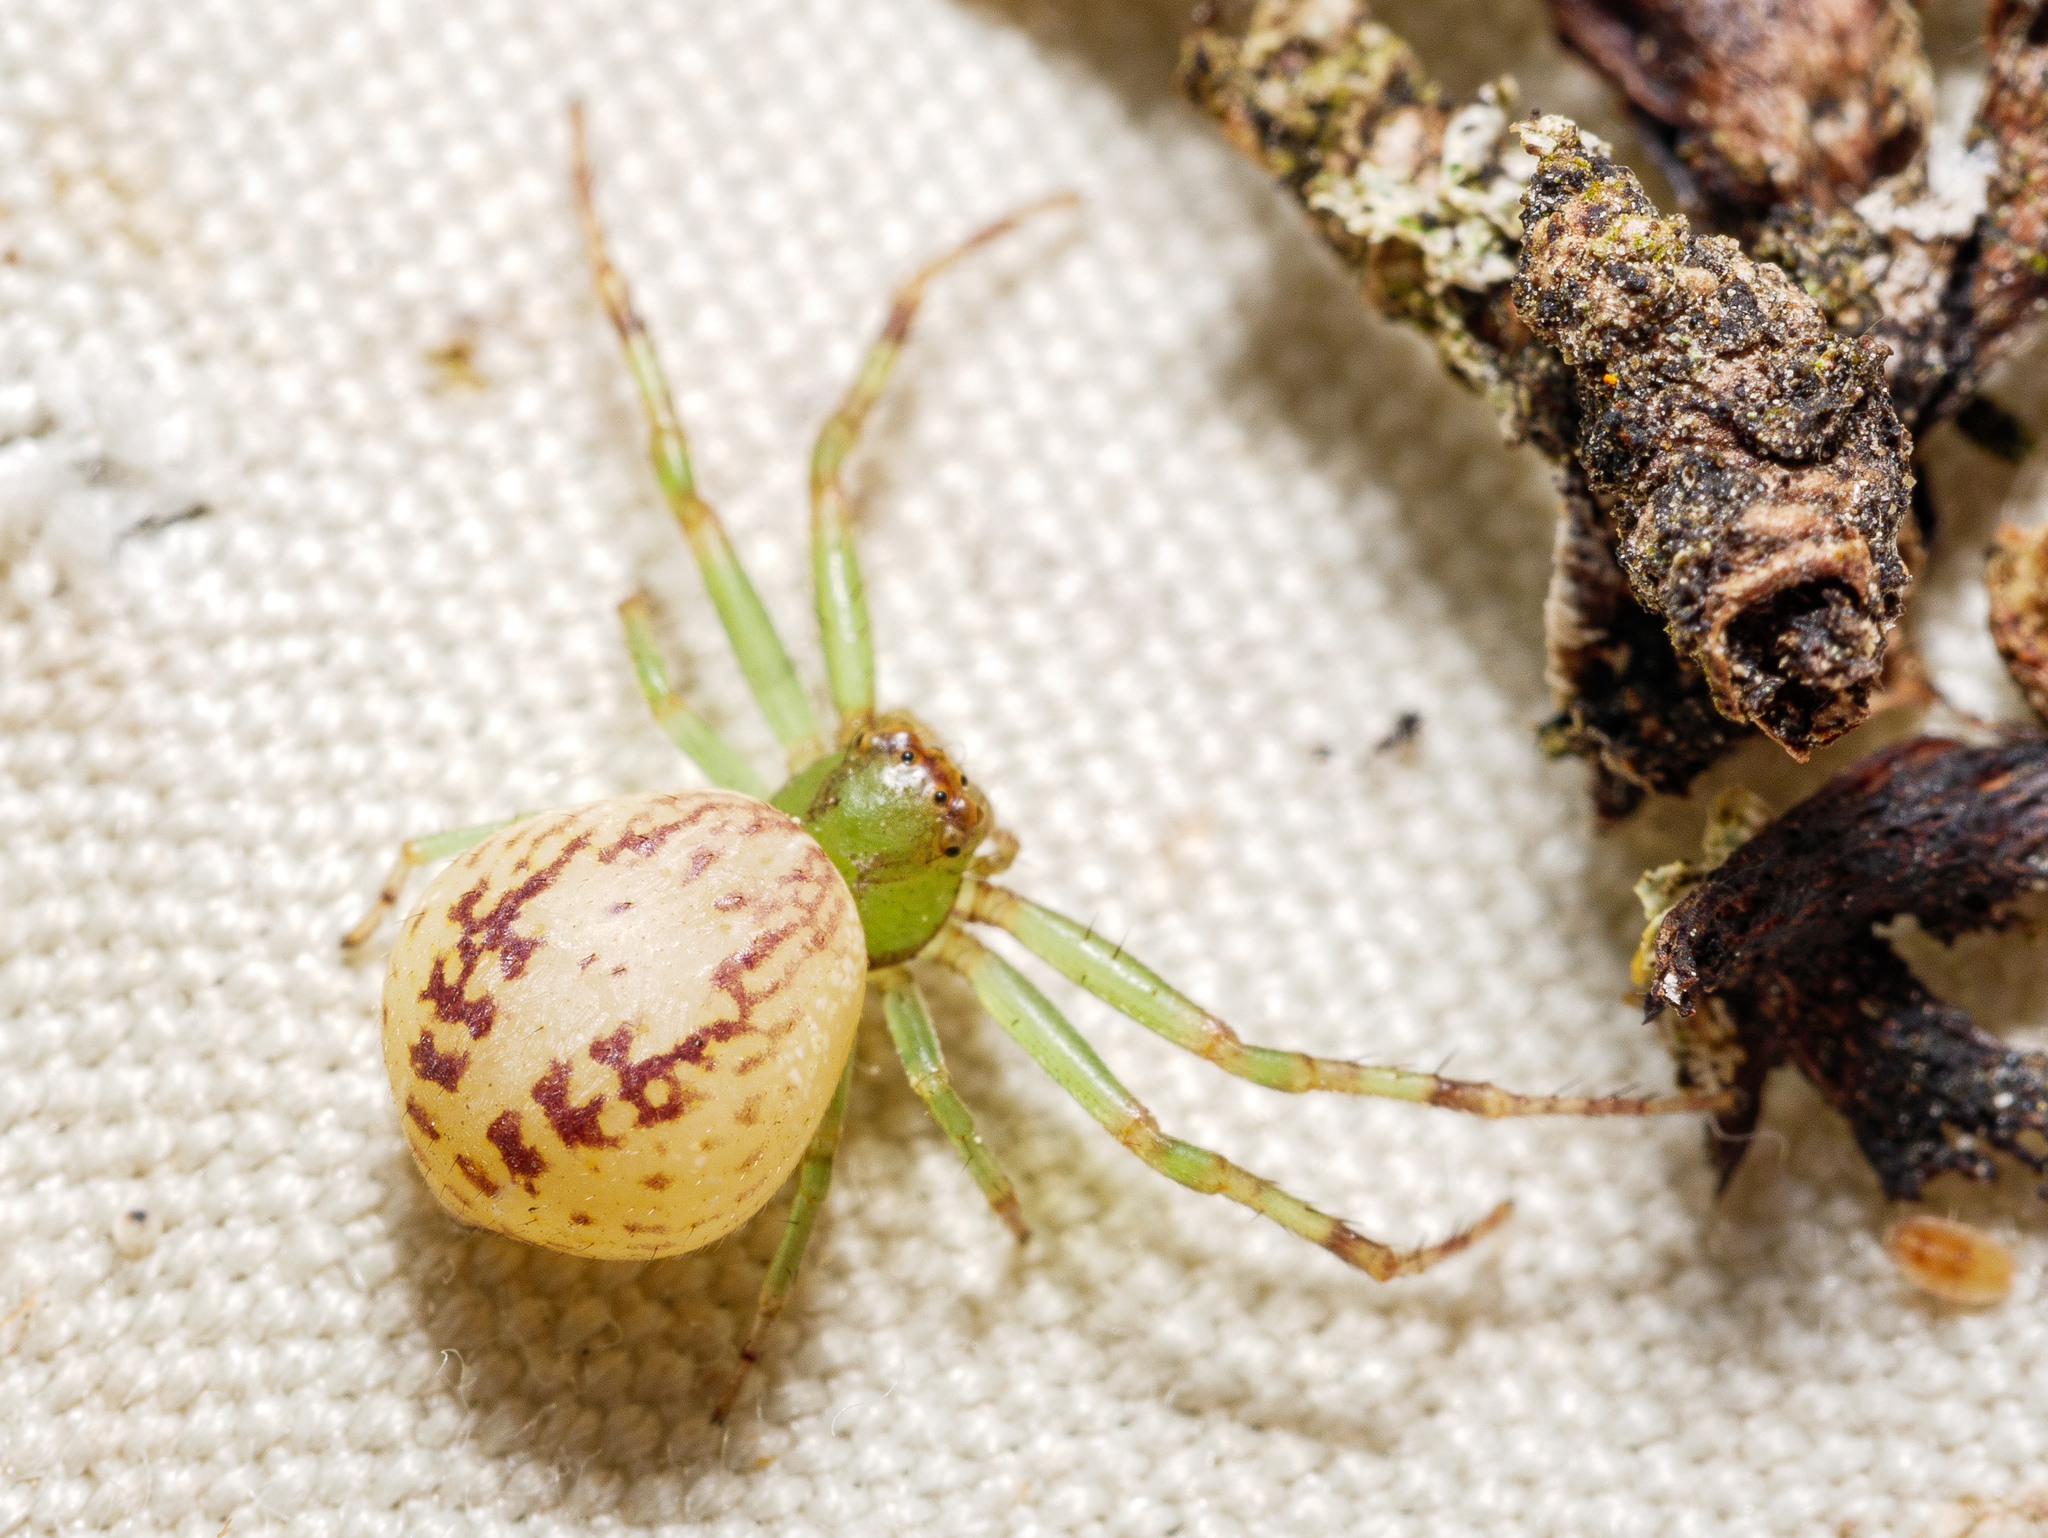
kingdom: Animalia
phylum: Arthropoda
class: Arachnida
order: Araneae
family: Thomisidae
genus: Diaea
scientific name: Diaea ambara
